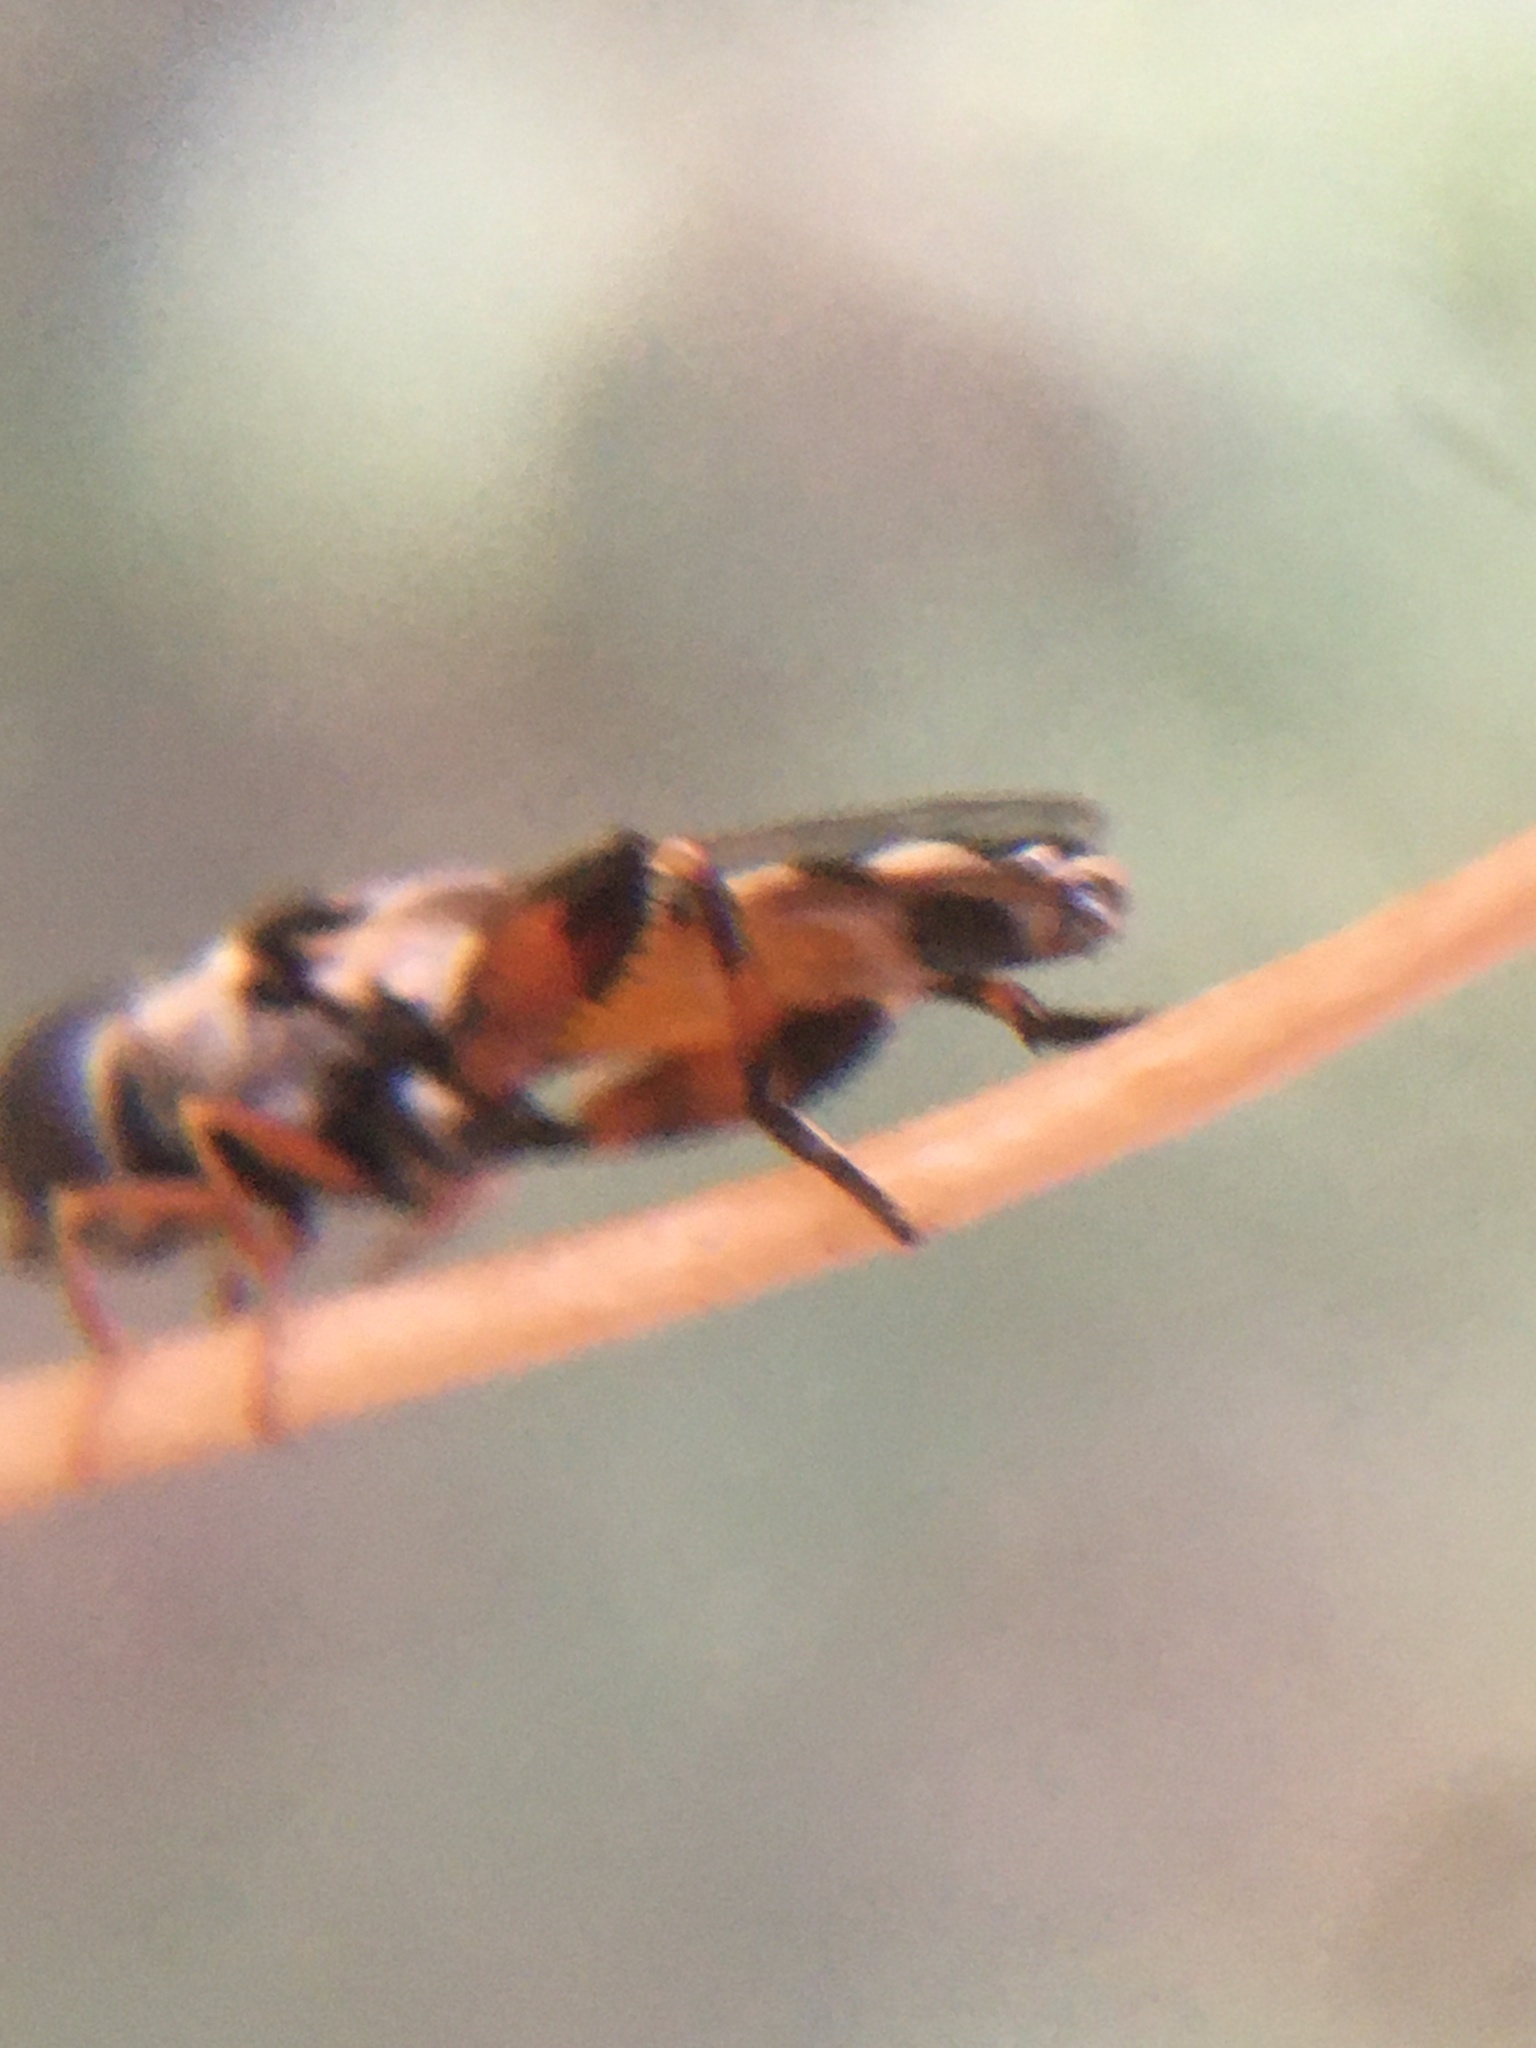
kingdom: Animalia
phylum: Arthropoda
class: Insecta
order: Diptera
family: Syrphidae
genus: Syritta
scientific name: Syritta
